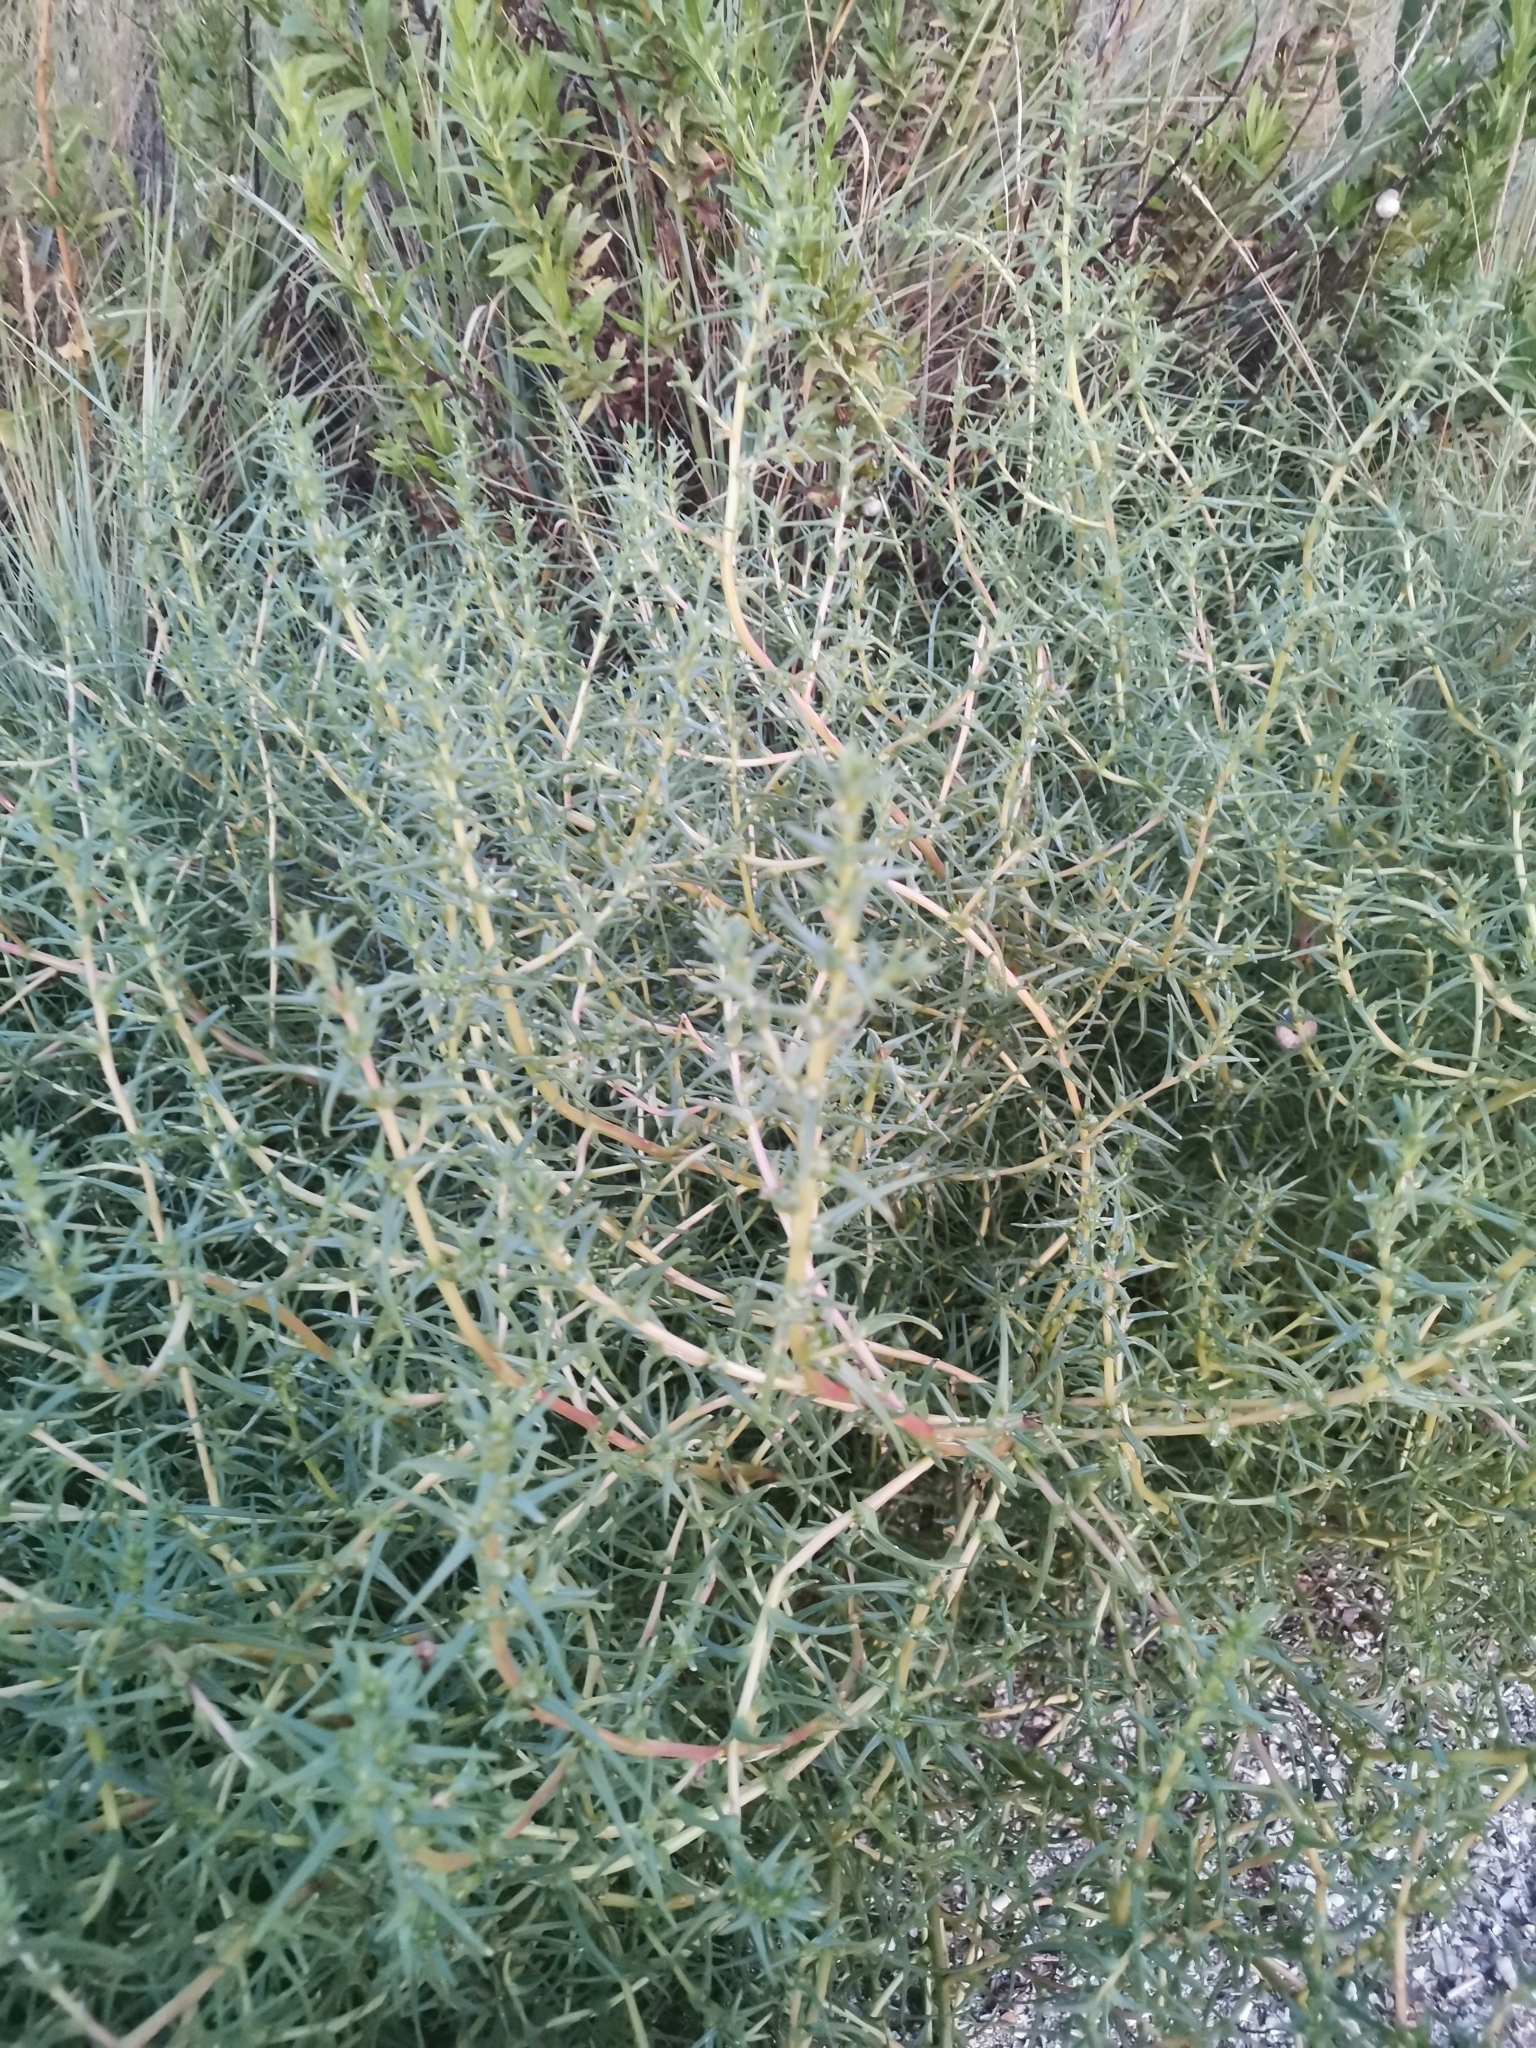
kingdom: Plantae
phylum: Tracheophyta
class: Magnoliopsida
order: Caryophyllales
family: Amaranthaceae
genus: Salsola
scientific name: Salsola soda
